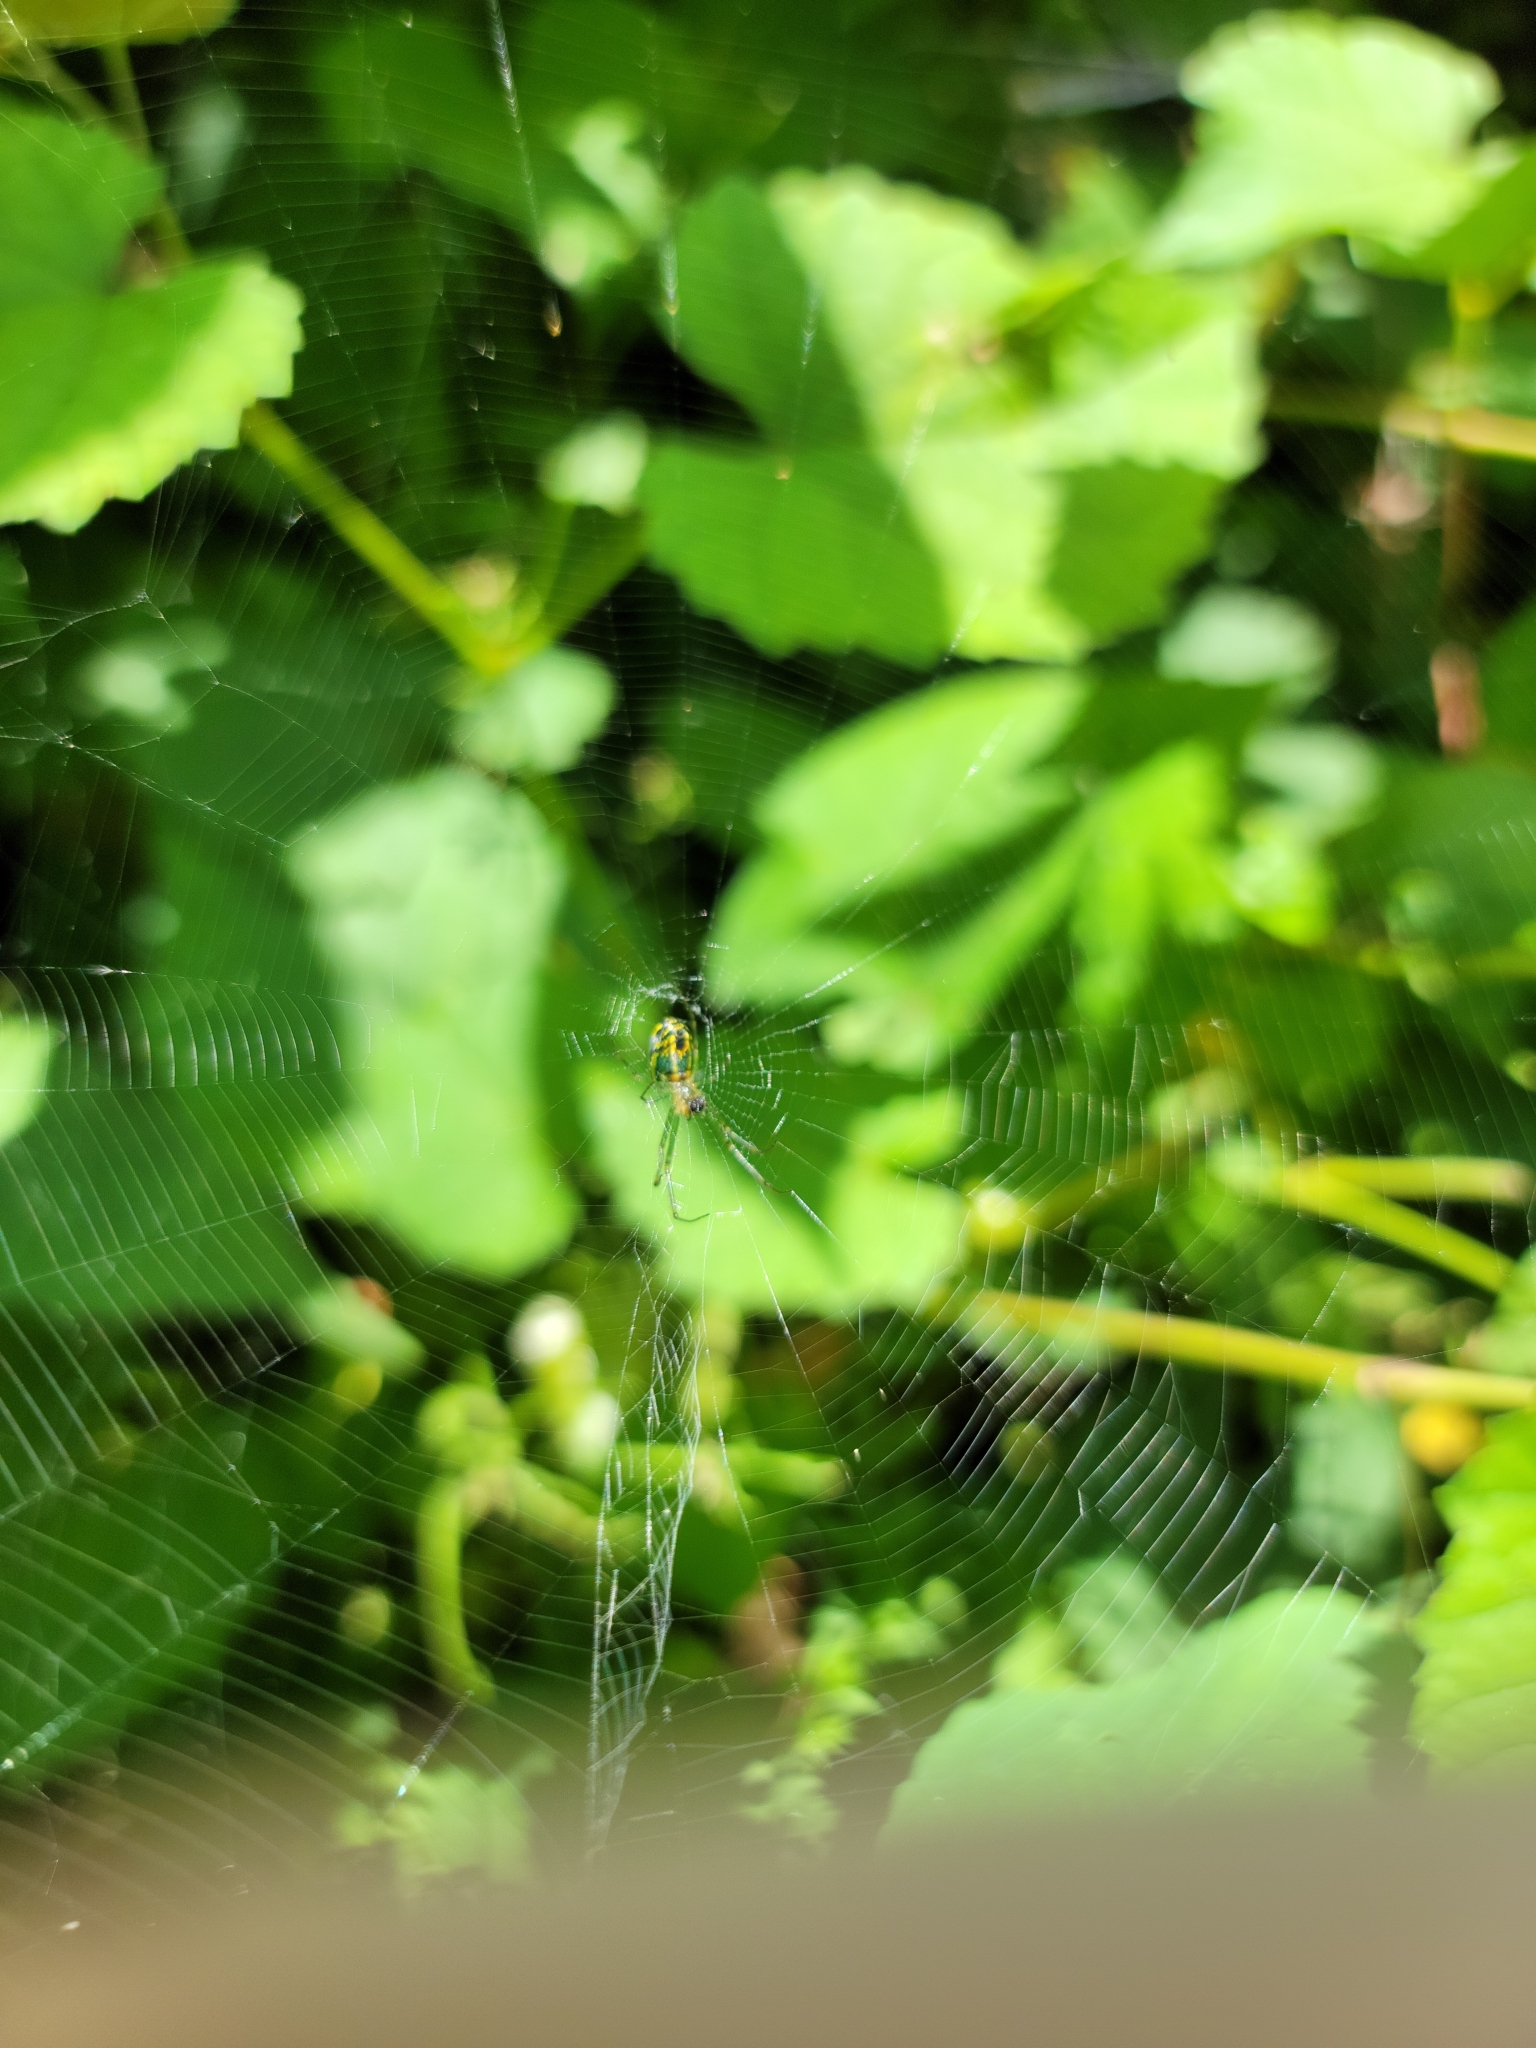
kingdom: Animalia
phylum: Arthropoda
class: Arachnida
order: Araneae
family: Tetragnathidae
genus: Leucauge
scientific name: Leucauge venusta
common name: Longjawed orb weavers
